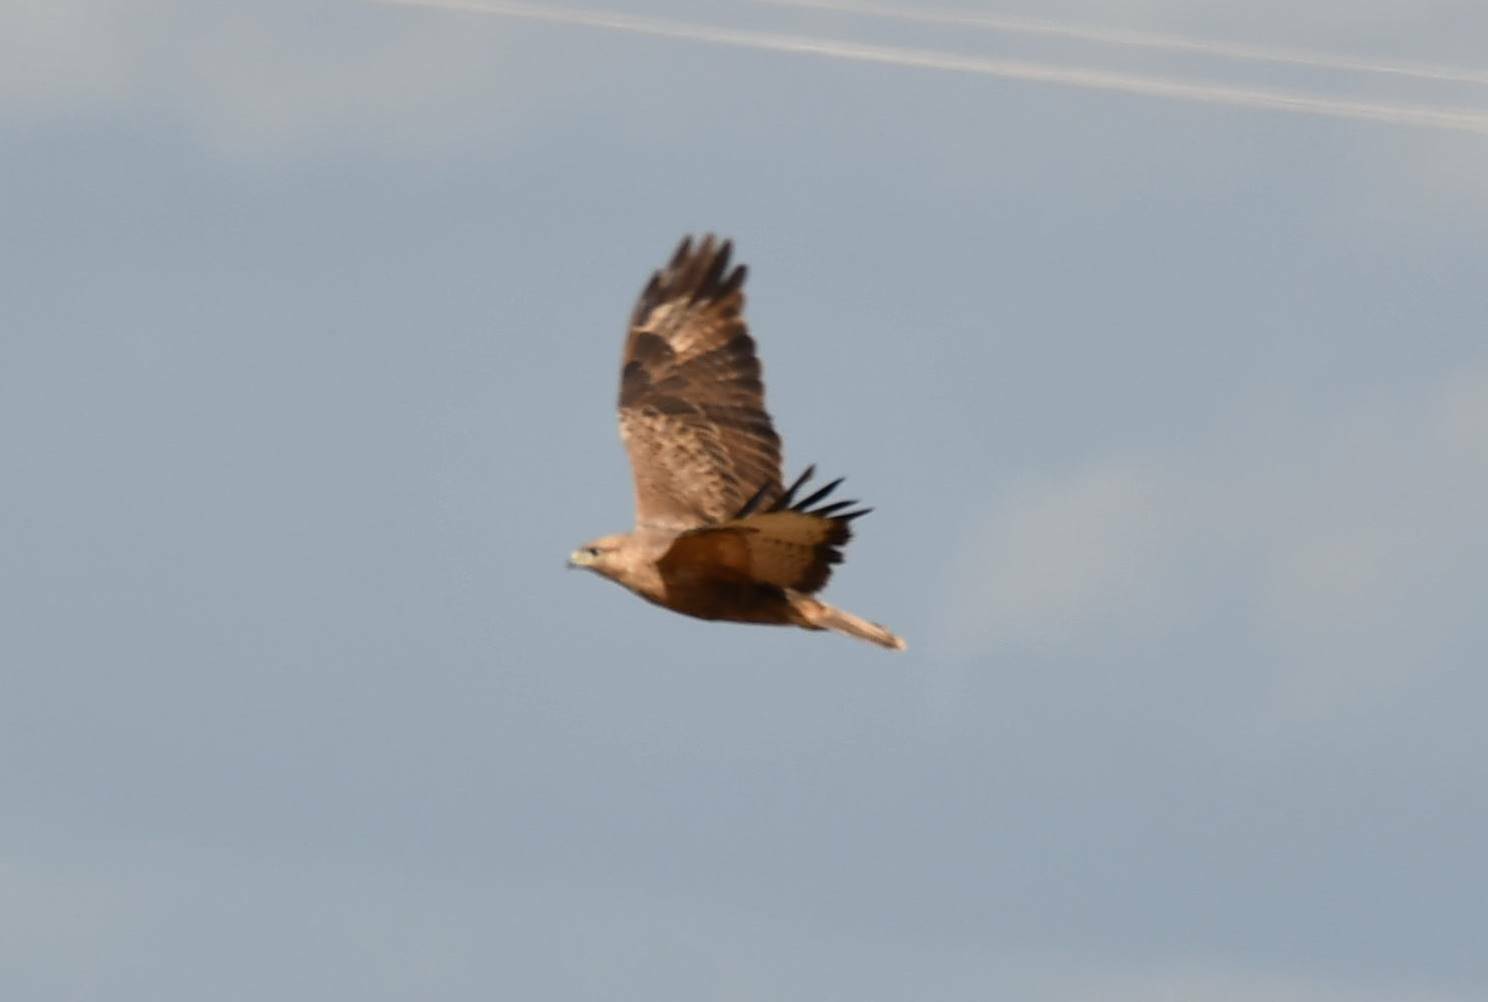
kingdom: Animalia
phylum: Chordata
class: Aves
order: Accipitriformes
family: Accipitridae
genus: Buteo
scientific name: Buteo rufinus
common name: Long-legged buzzard
